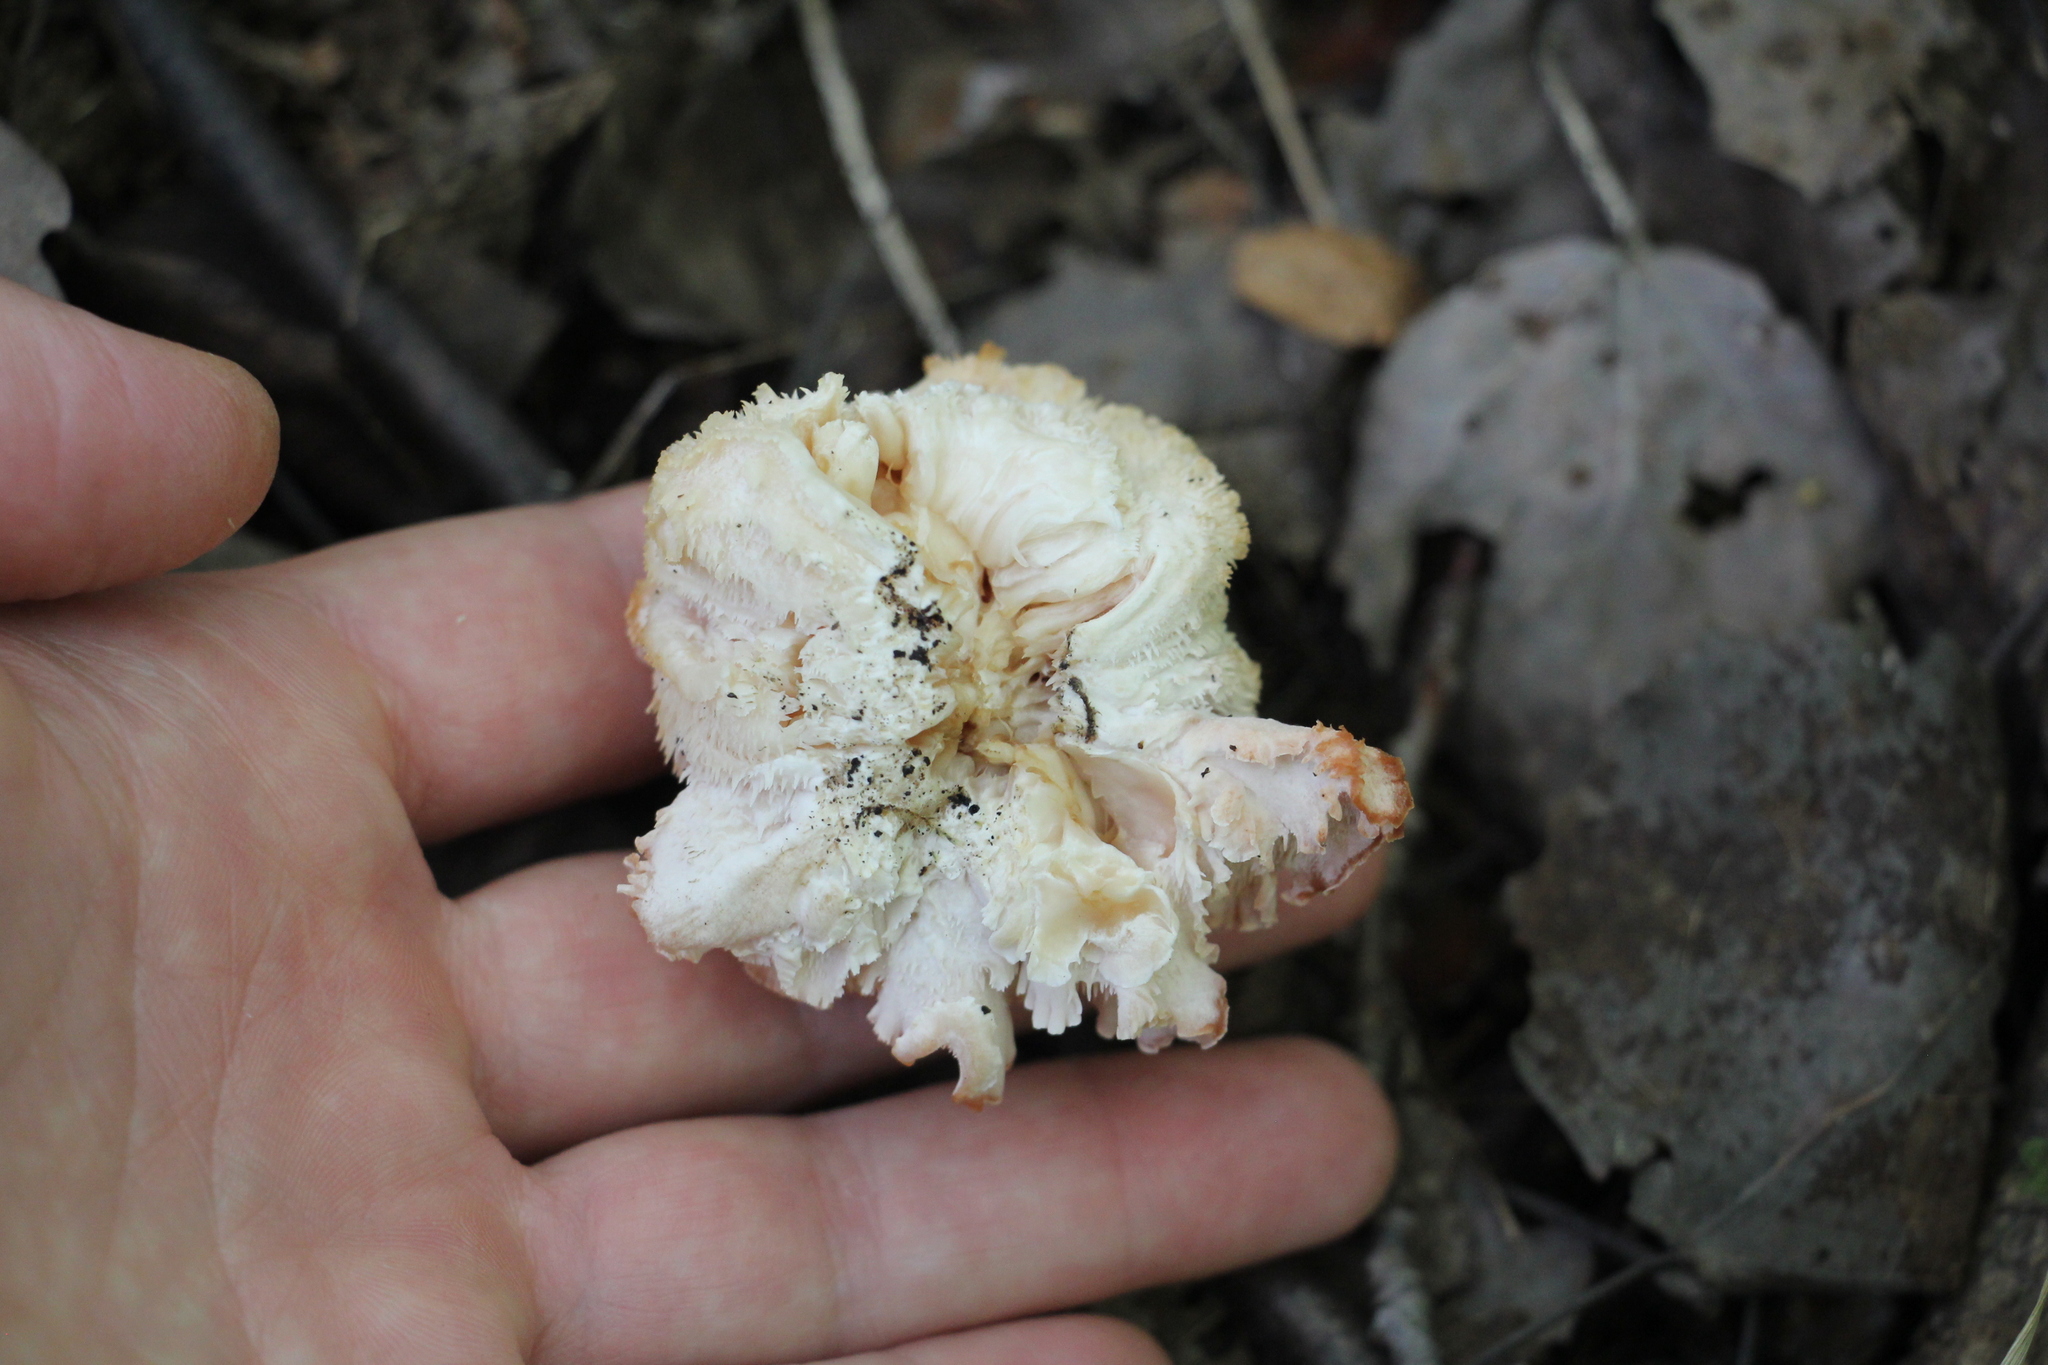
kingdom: Fungi
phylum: Basidiomycota
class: Agaricomycetes
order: Russulales
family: Hericiaceae
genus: Hericium
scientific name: Hericium cirrhatum
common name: Tiered tooth
